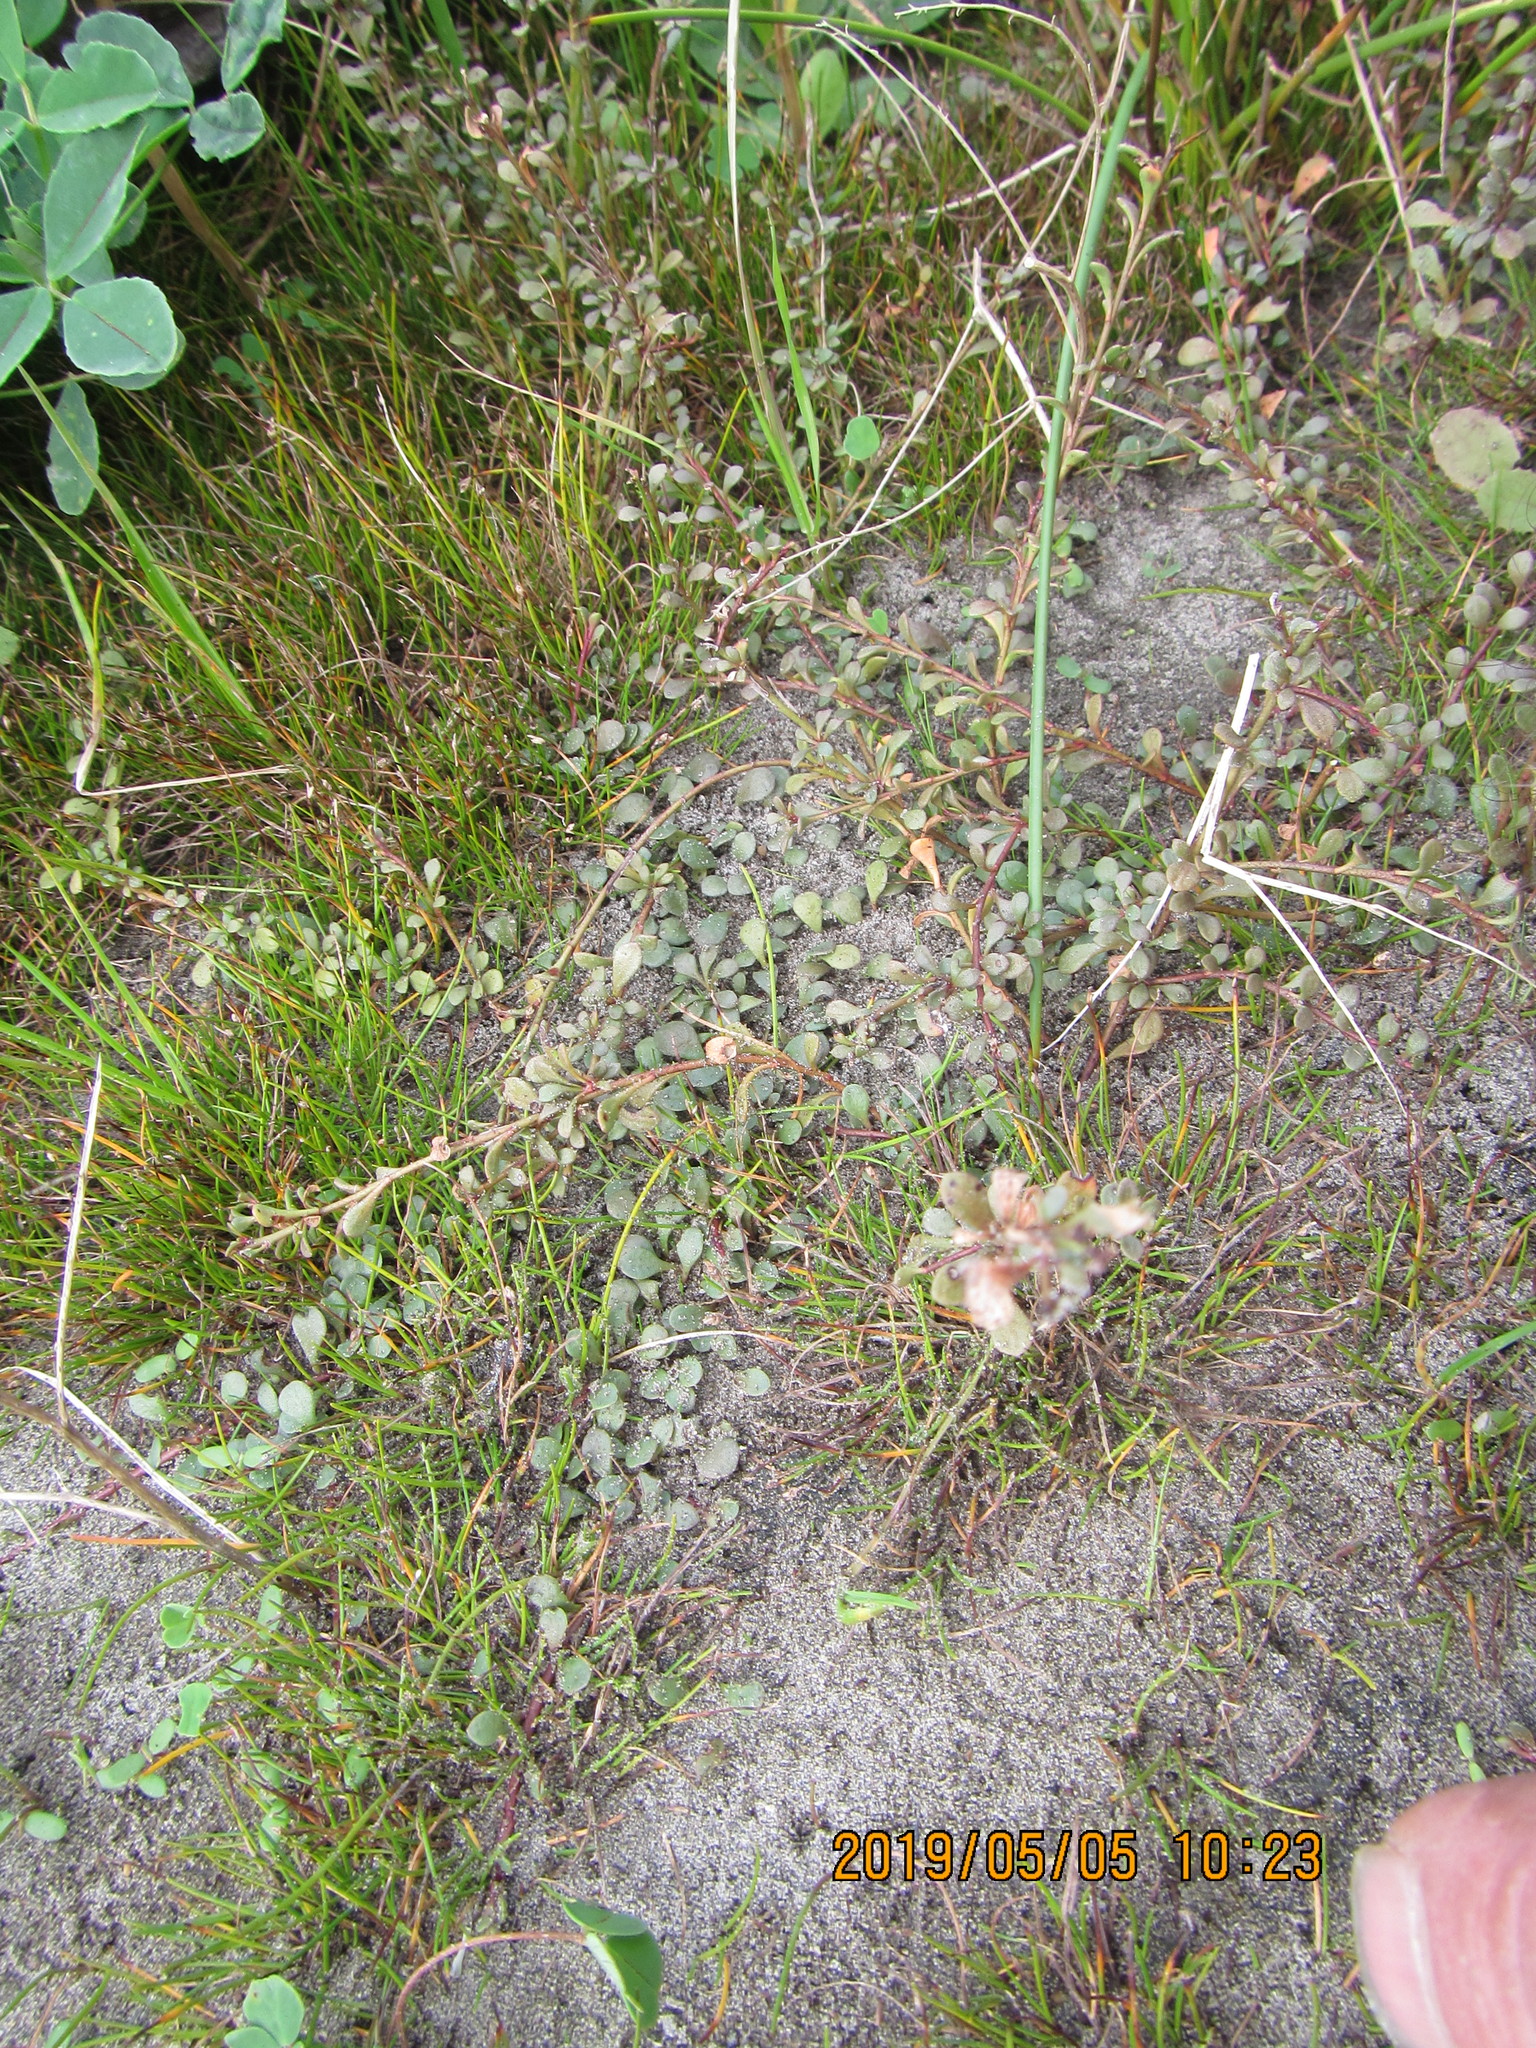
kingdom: Plantae
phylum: Tracheophyta
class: Magnoliopsida
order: Ericales
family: Primulaceae
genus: Samolus
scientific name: Samolus repens
